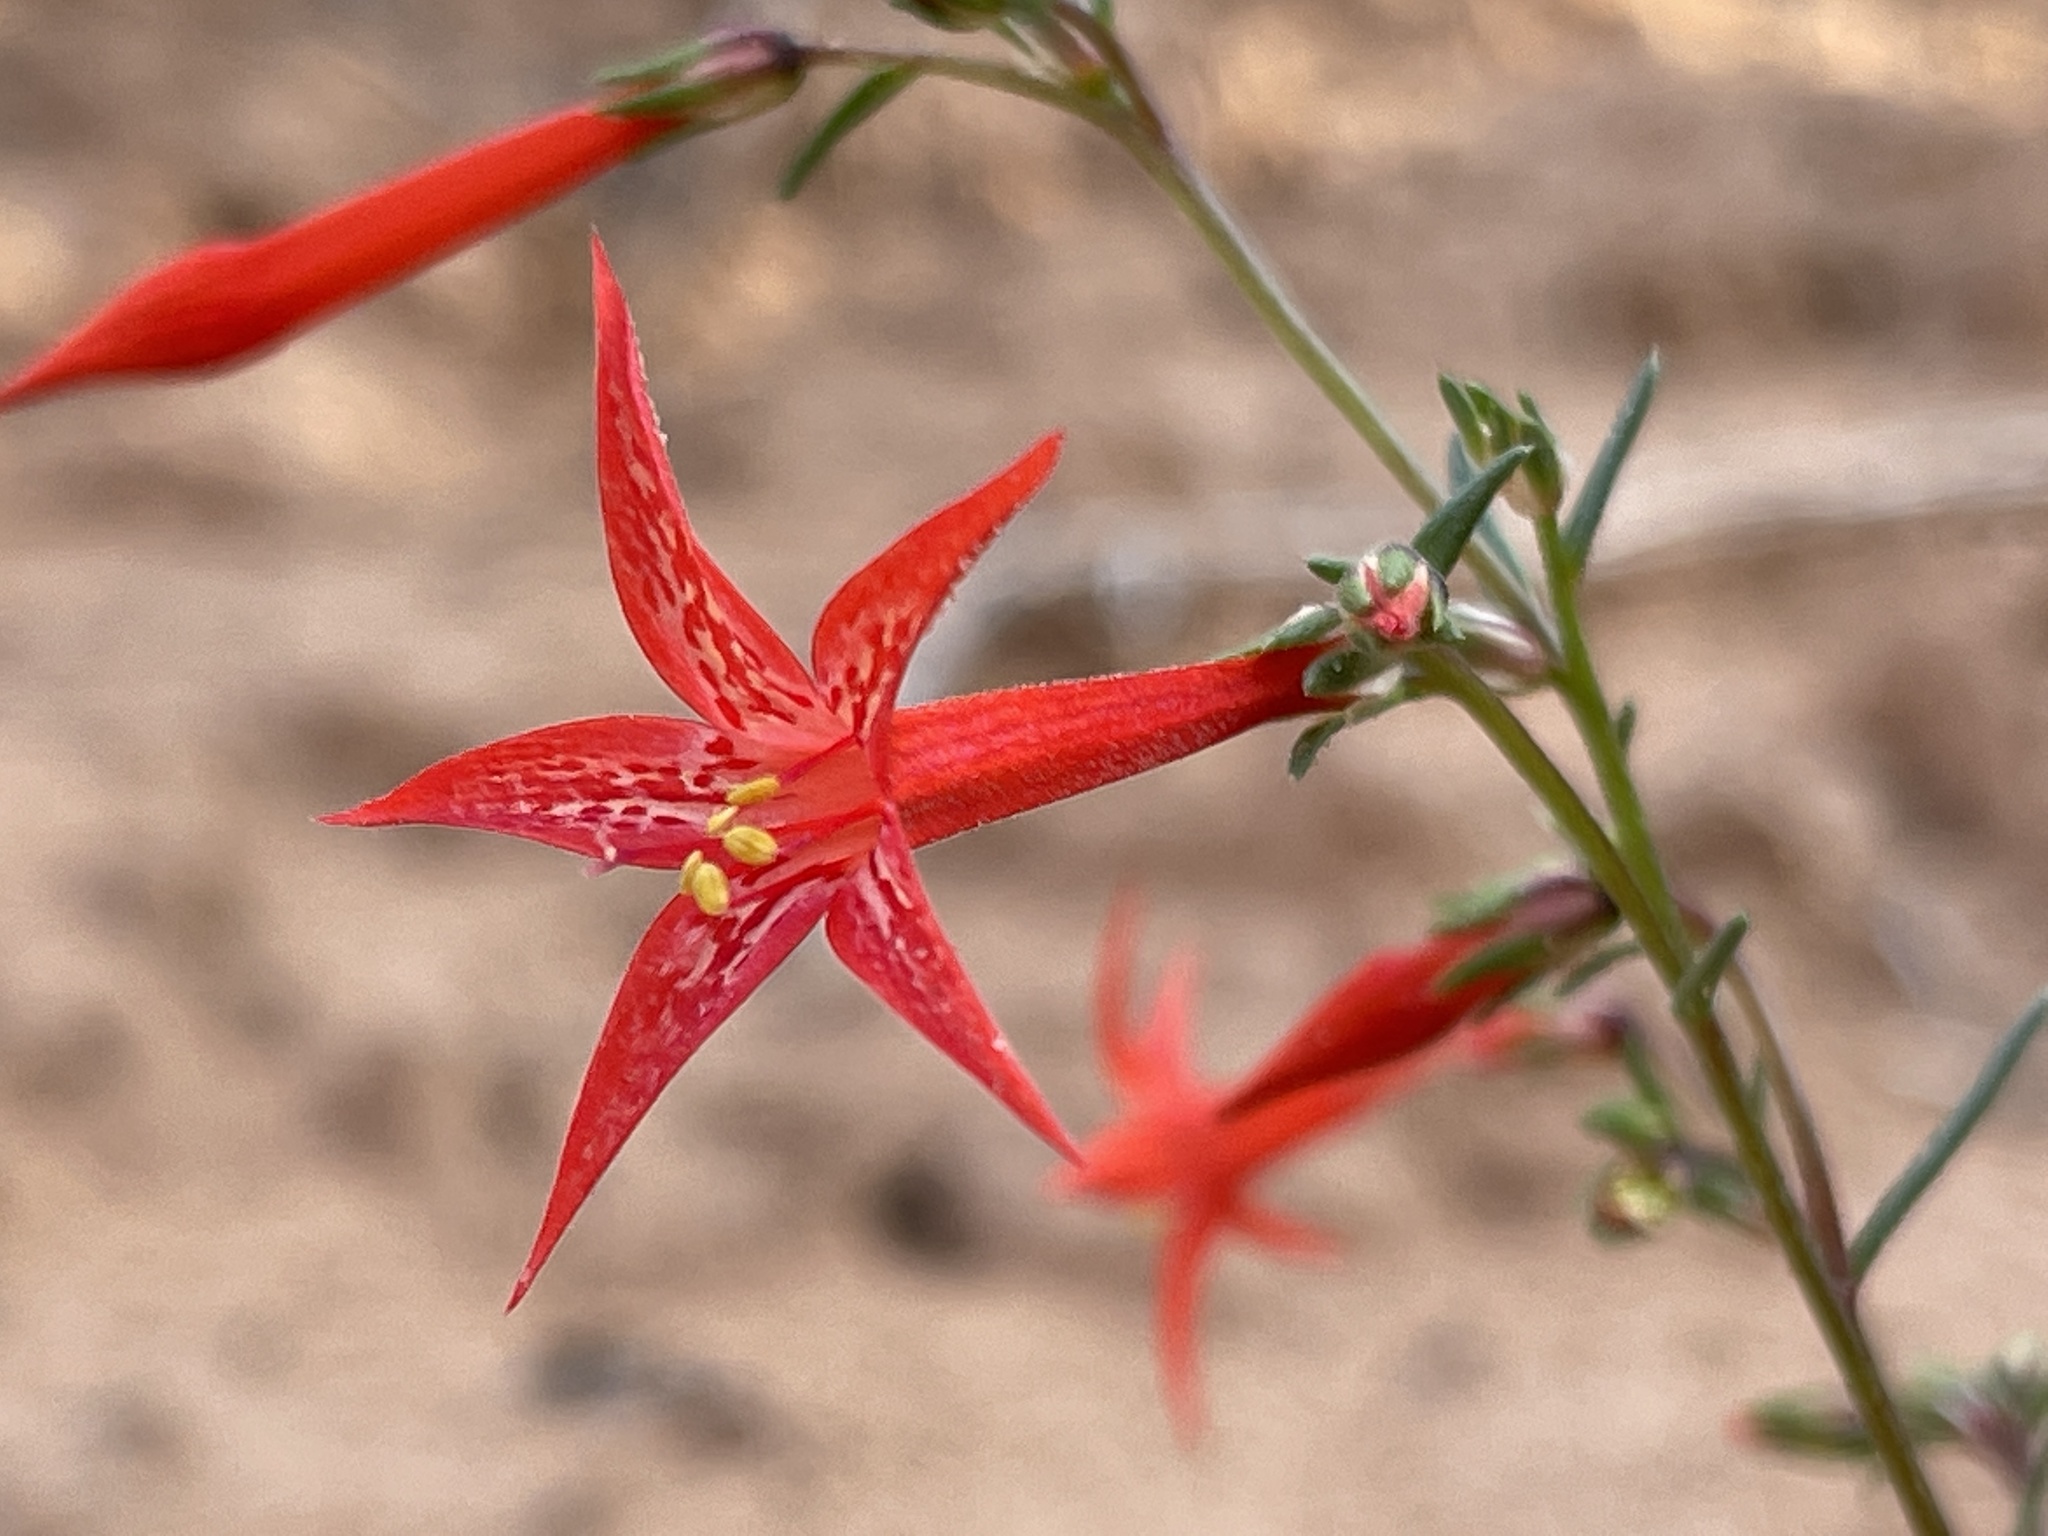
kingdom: Plantae
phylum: Tracheophyta
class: Magnoliopsida
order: Ericales
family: Polemoniaceae
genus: Ipomopsis
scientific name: Ipomopsis aggregata
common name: Scarlet gilia
